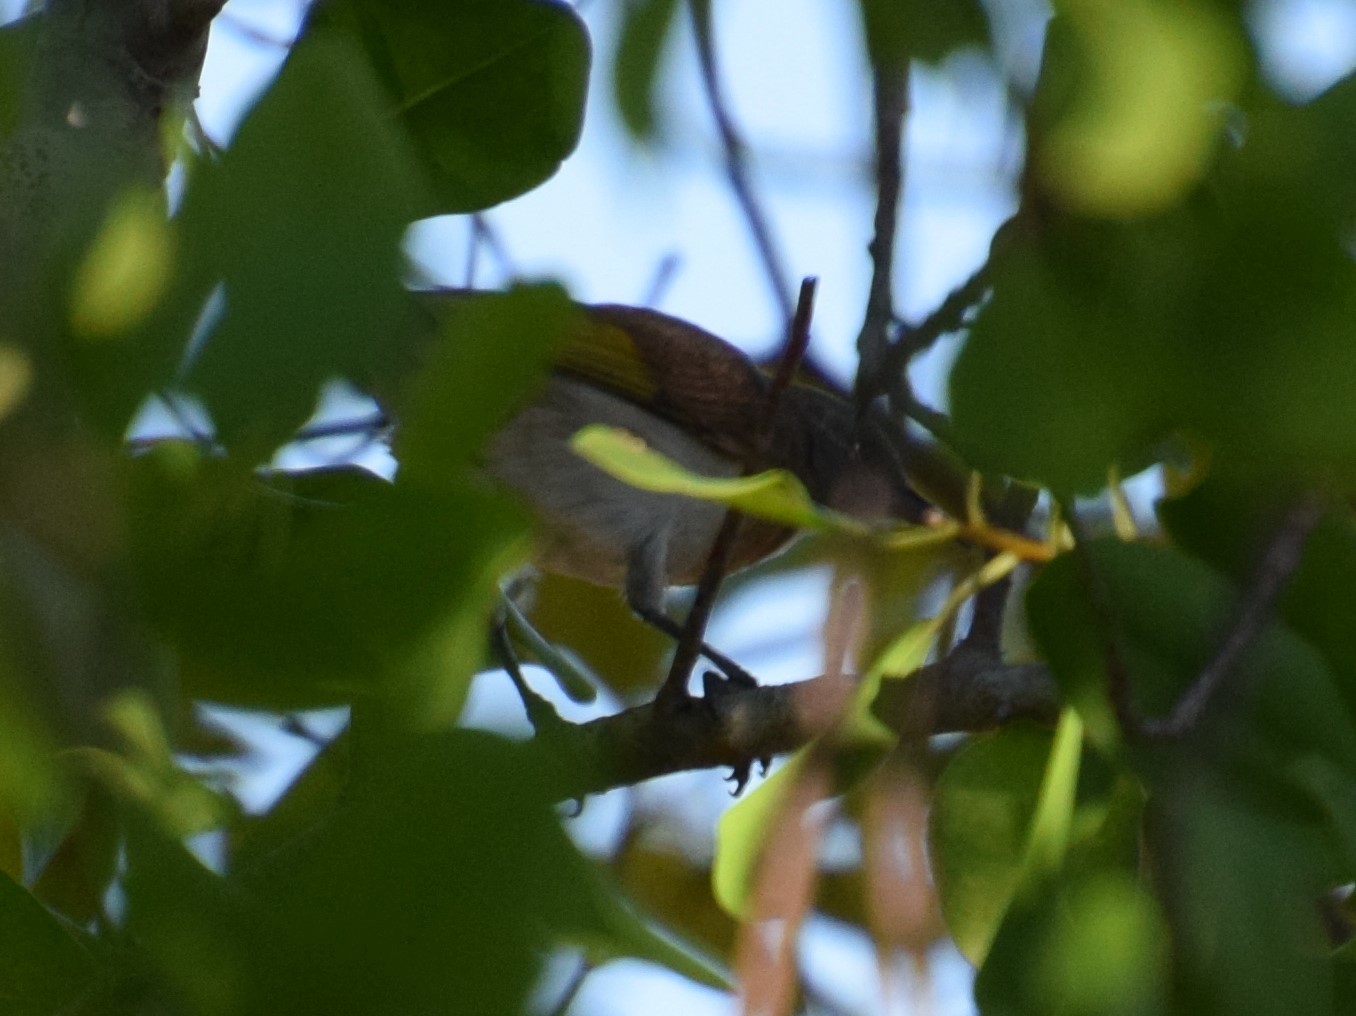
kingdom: Animalia
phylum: Chordata
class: Aves
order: Passeriformes
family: Meliphagidae
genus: Conopophila
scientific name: Conopophila albogularis
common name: Rufous-banded honeyeater
